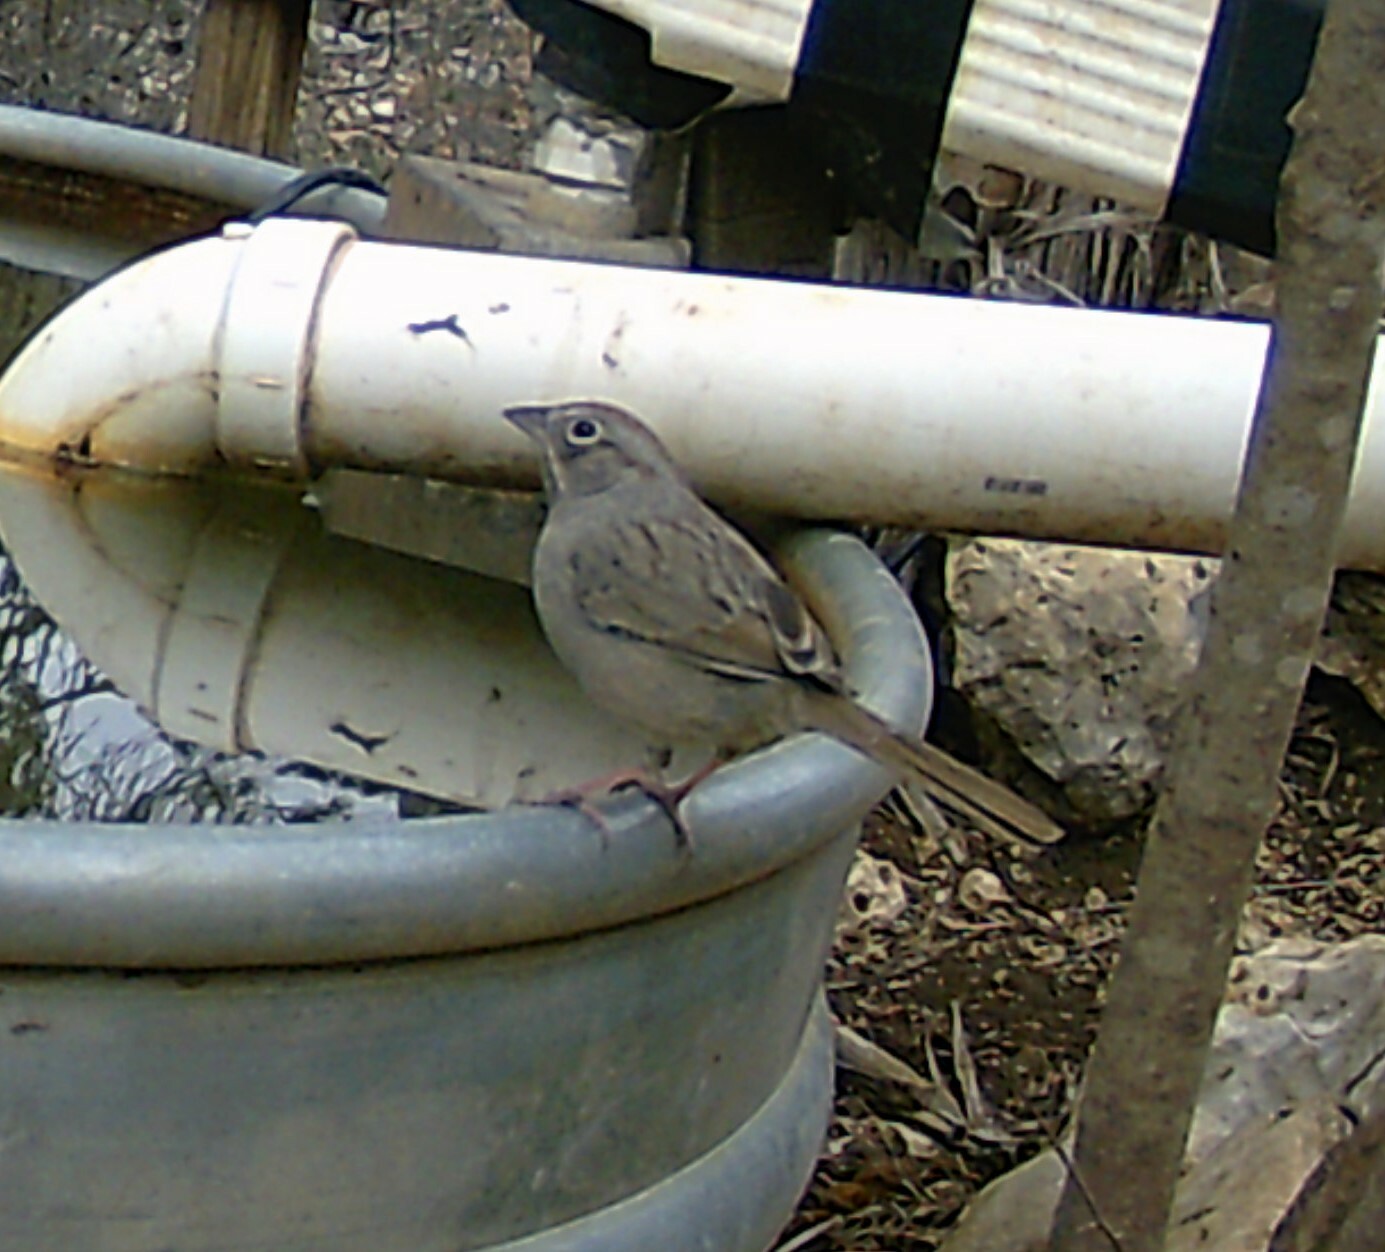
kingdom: Animalia
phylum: Chordata
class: Aves
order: Passeriformes
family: Passerellidae
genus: Aimophila
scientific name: Aimophila ruficeps
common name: Rufous-crowned sparrow
